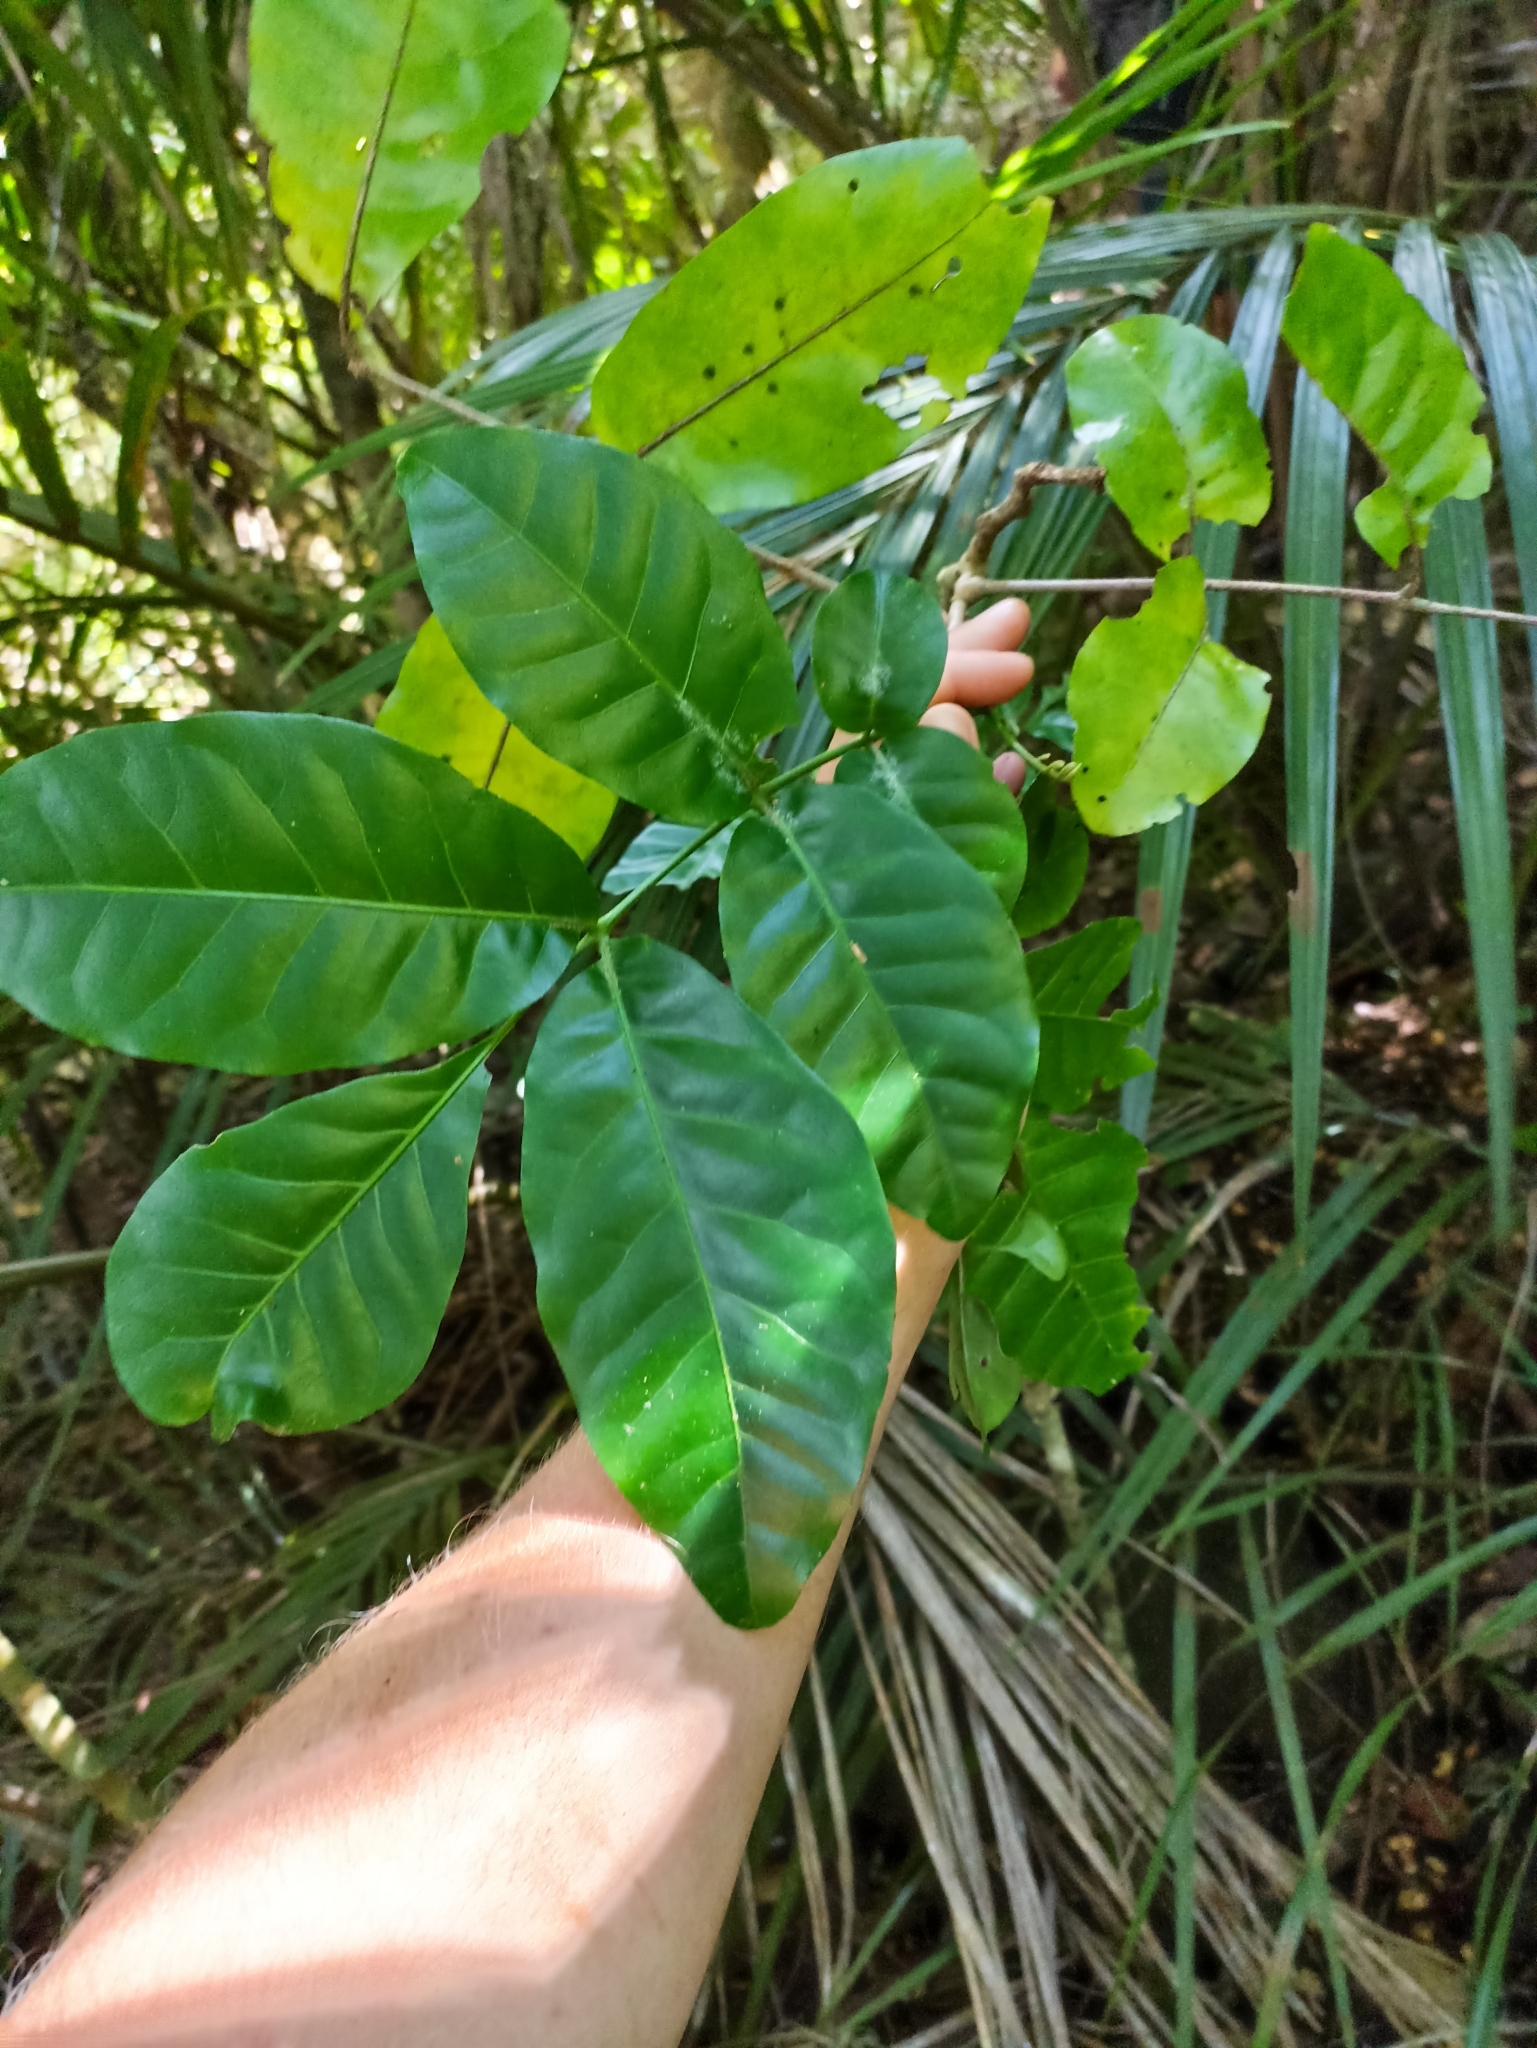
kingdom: Plantae
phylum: Tracheophyta
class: Magnoliopsida
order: Sapindales
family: Meliaceae
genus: Didymocheton
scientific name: Didymocheton spectabilis
